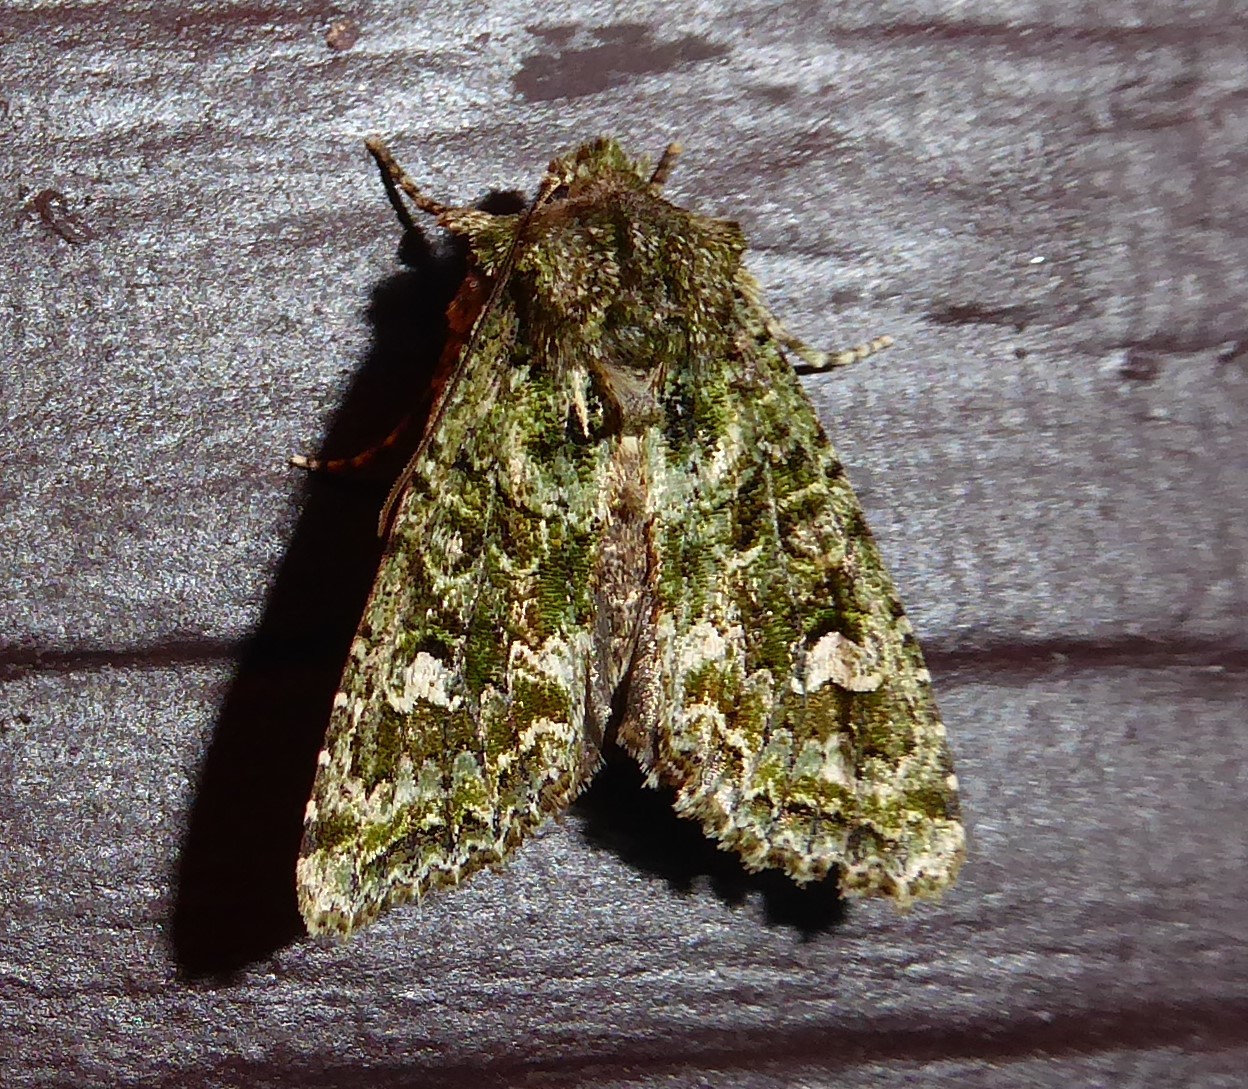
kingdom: Animalia
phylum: Arthropoda
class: Insecta
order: Lepidoptera
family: Noctuidae
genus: Ichneutica
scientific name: Ichneutica
